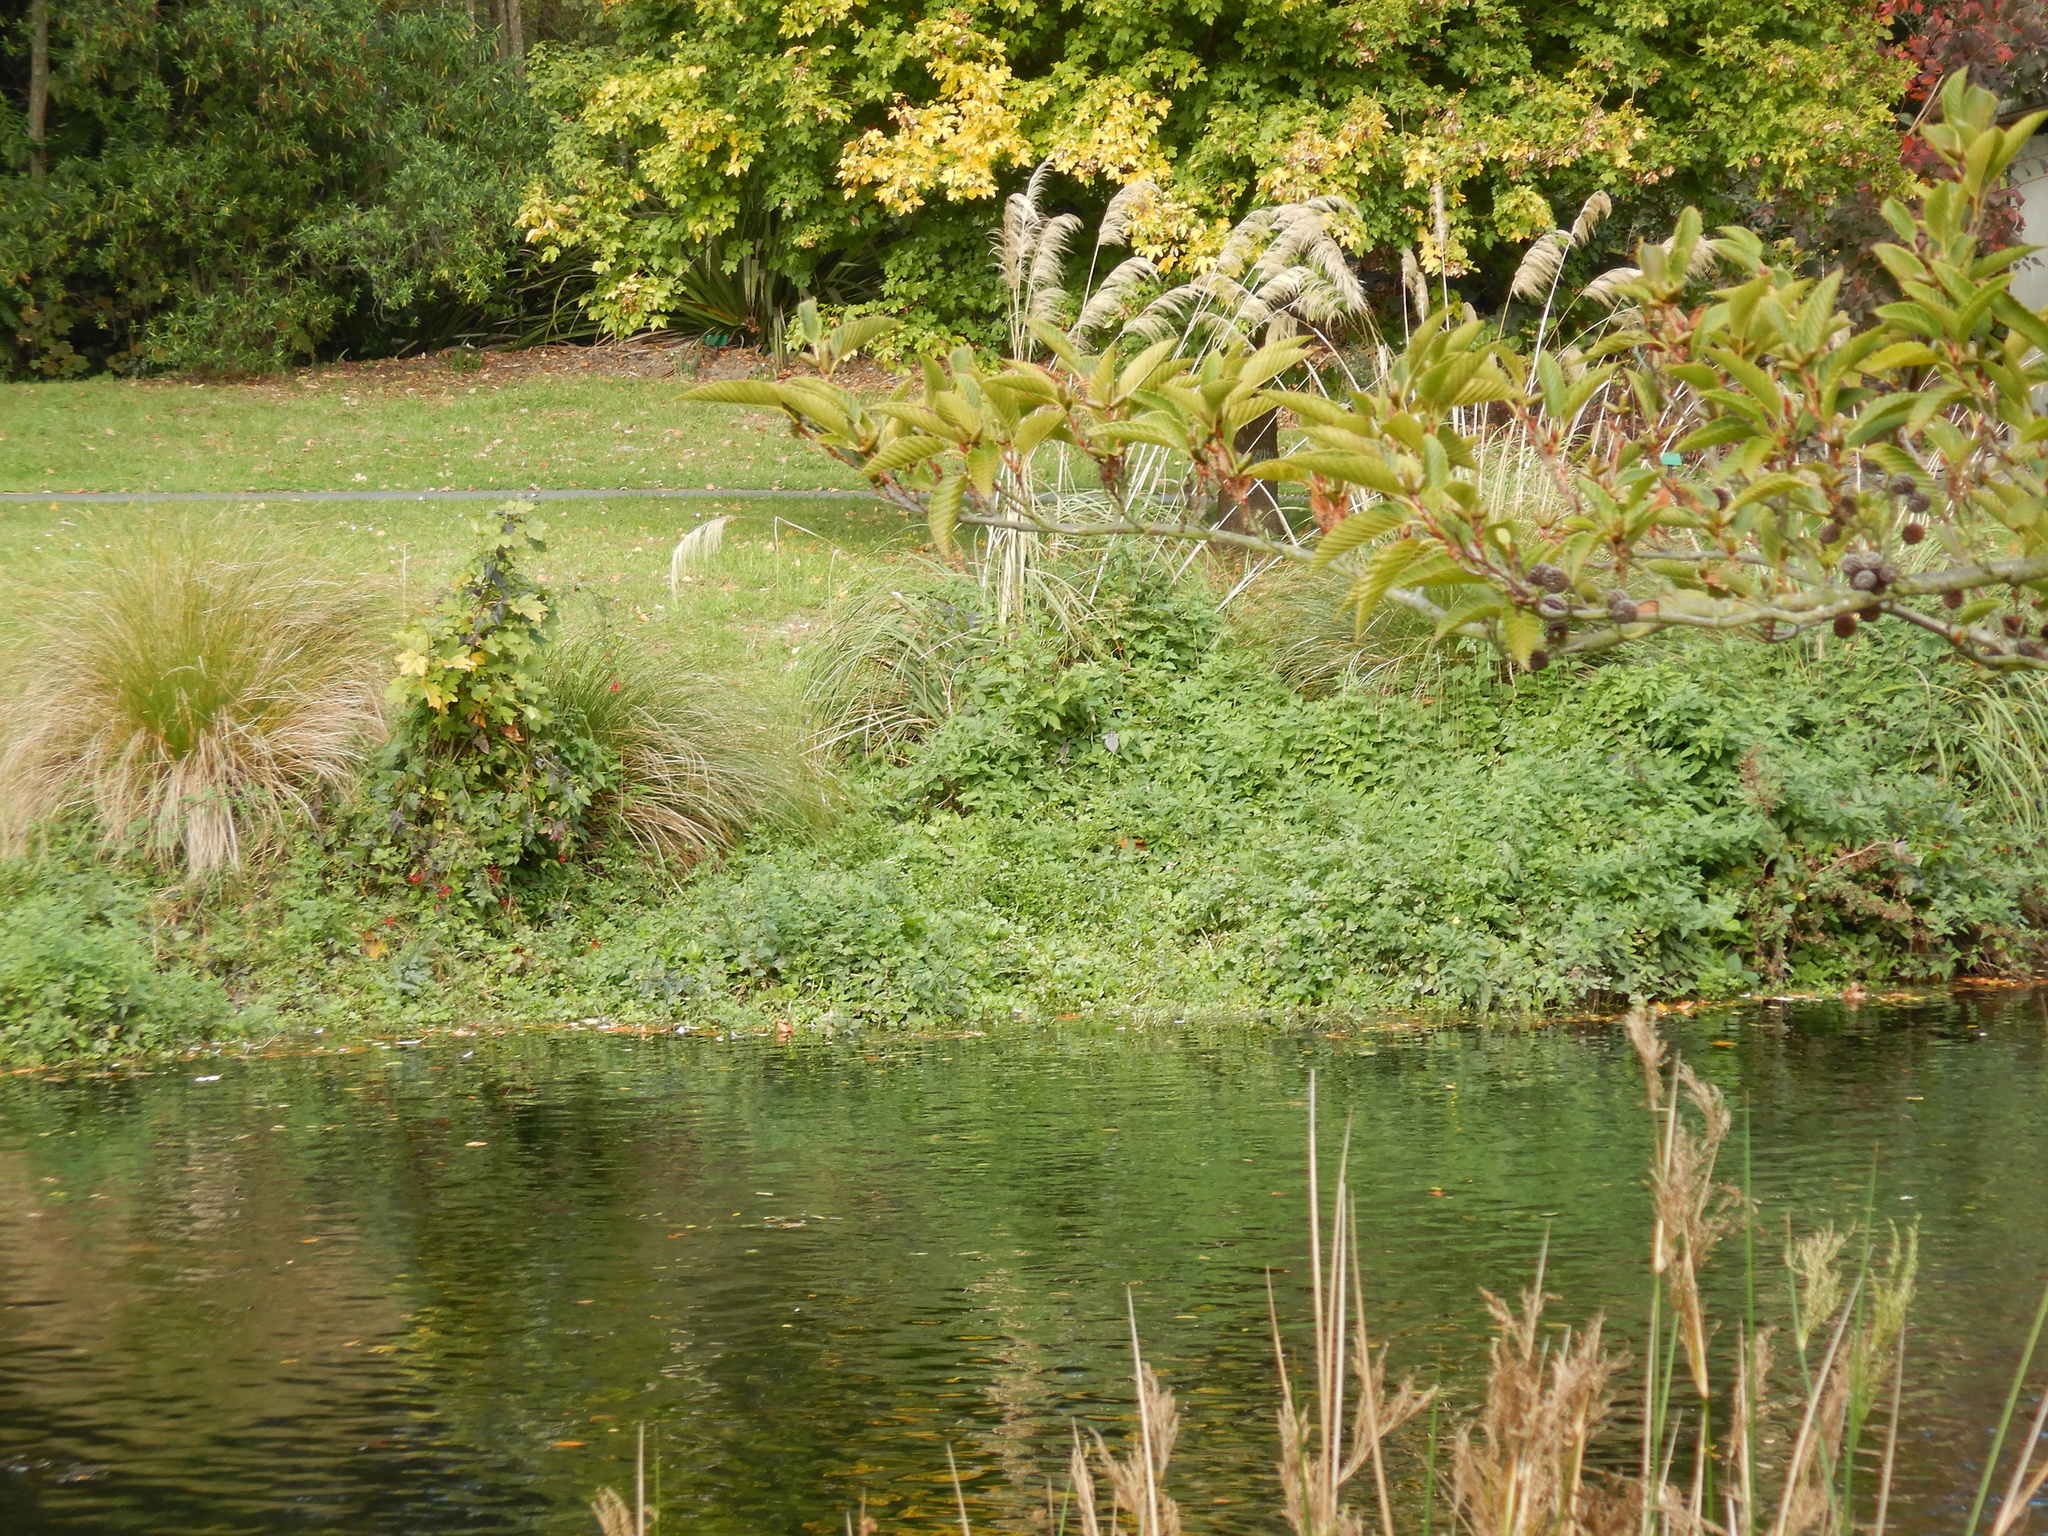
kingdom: Plantae
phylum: Tracheophyta
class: Magnoliopsida
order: Solanales
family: Solanaceae
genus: Solanum
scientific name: Solanum dulcamara
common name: Climbing nightshade
